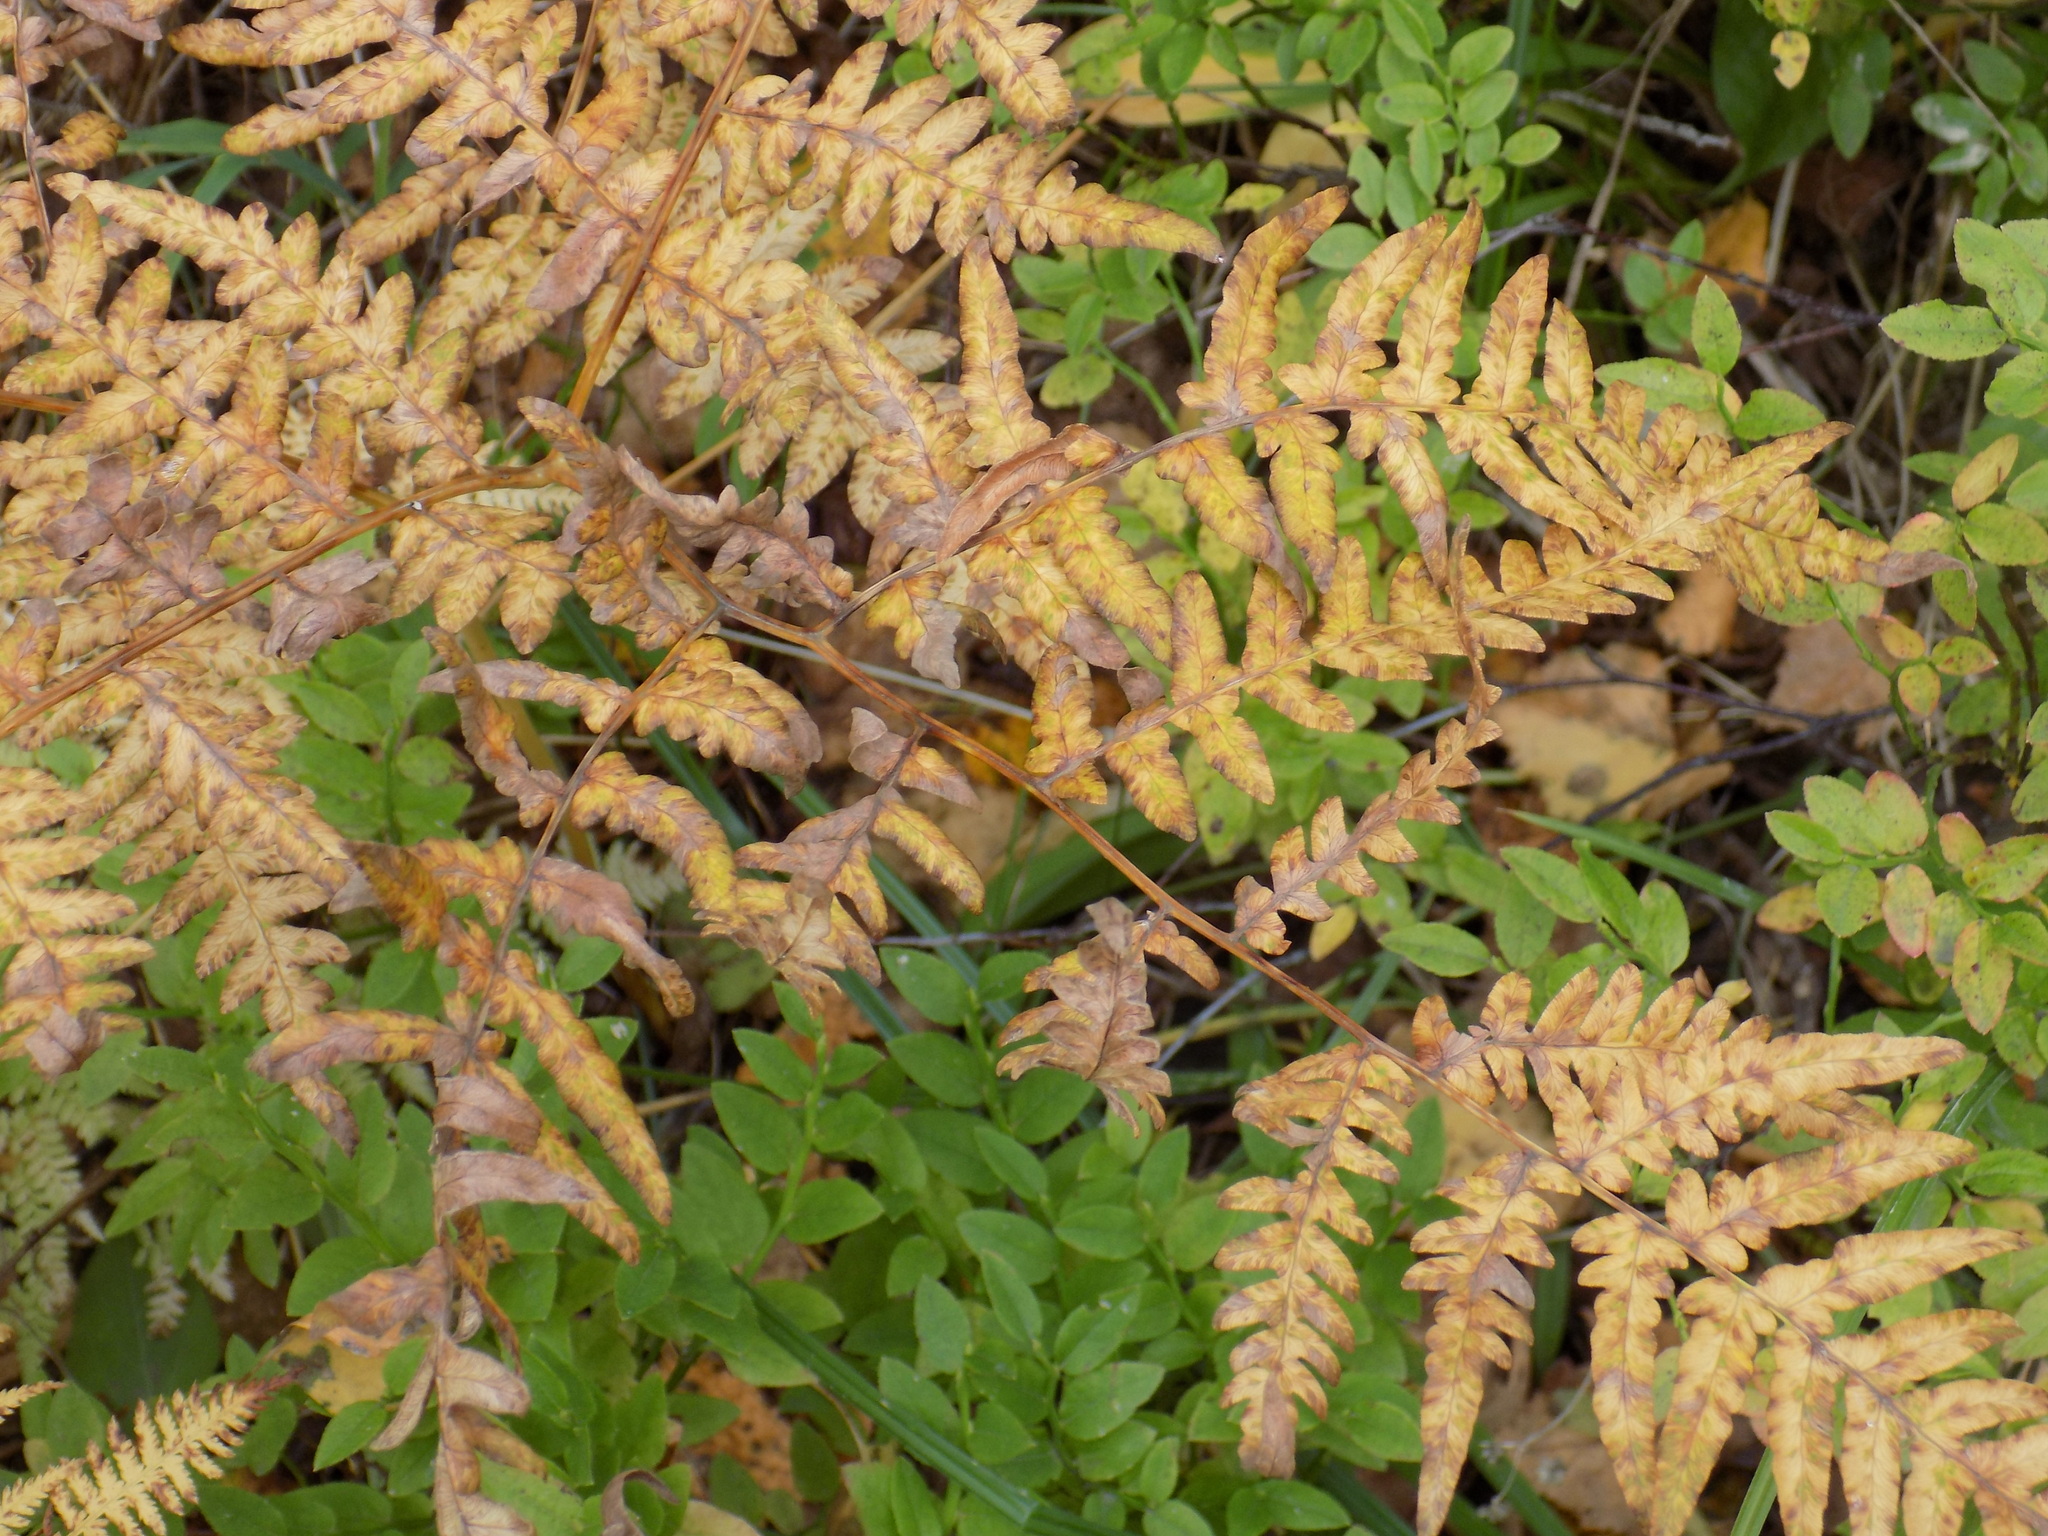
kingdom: Plantae
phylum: Tracheophyta
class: Polypodiopsida
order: Polypodiales
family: Dennstaedtiaceae
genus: Pteridium
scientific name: Pteridium aquilinum
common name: Bracken
